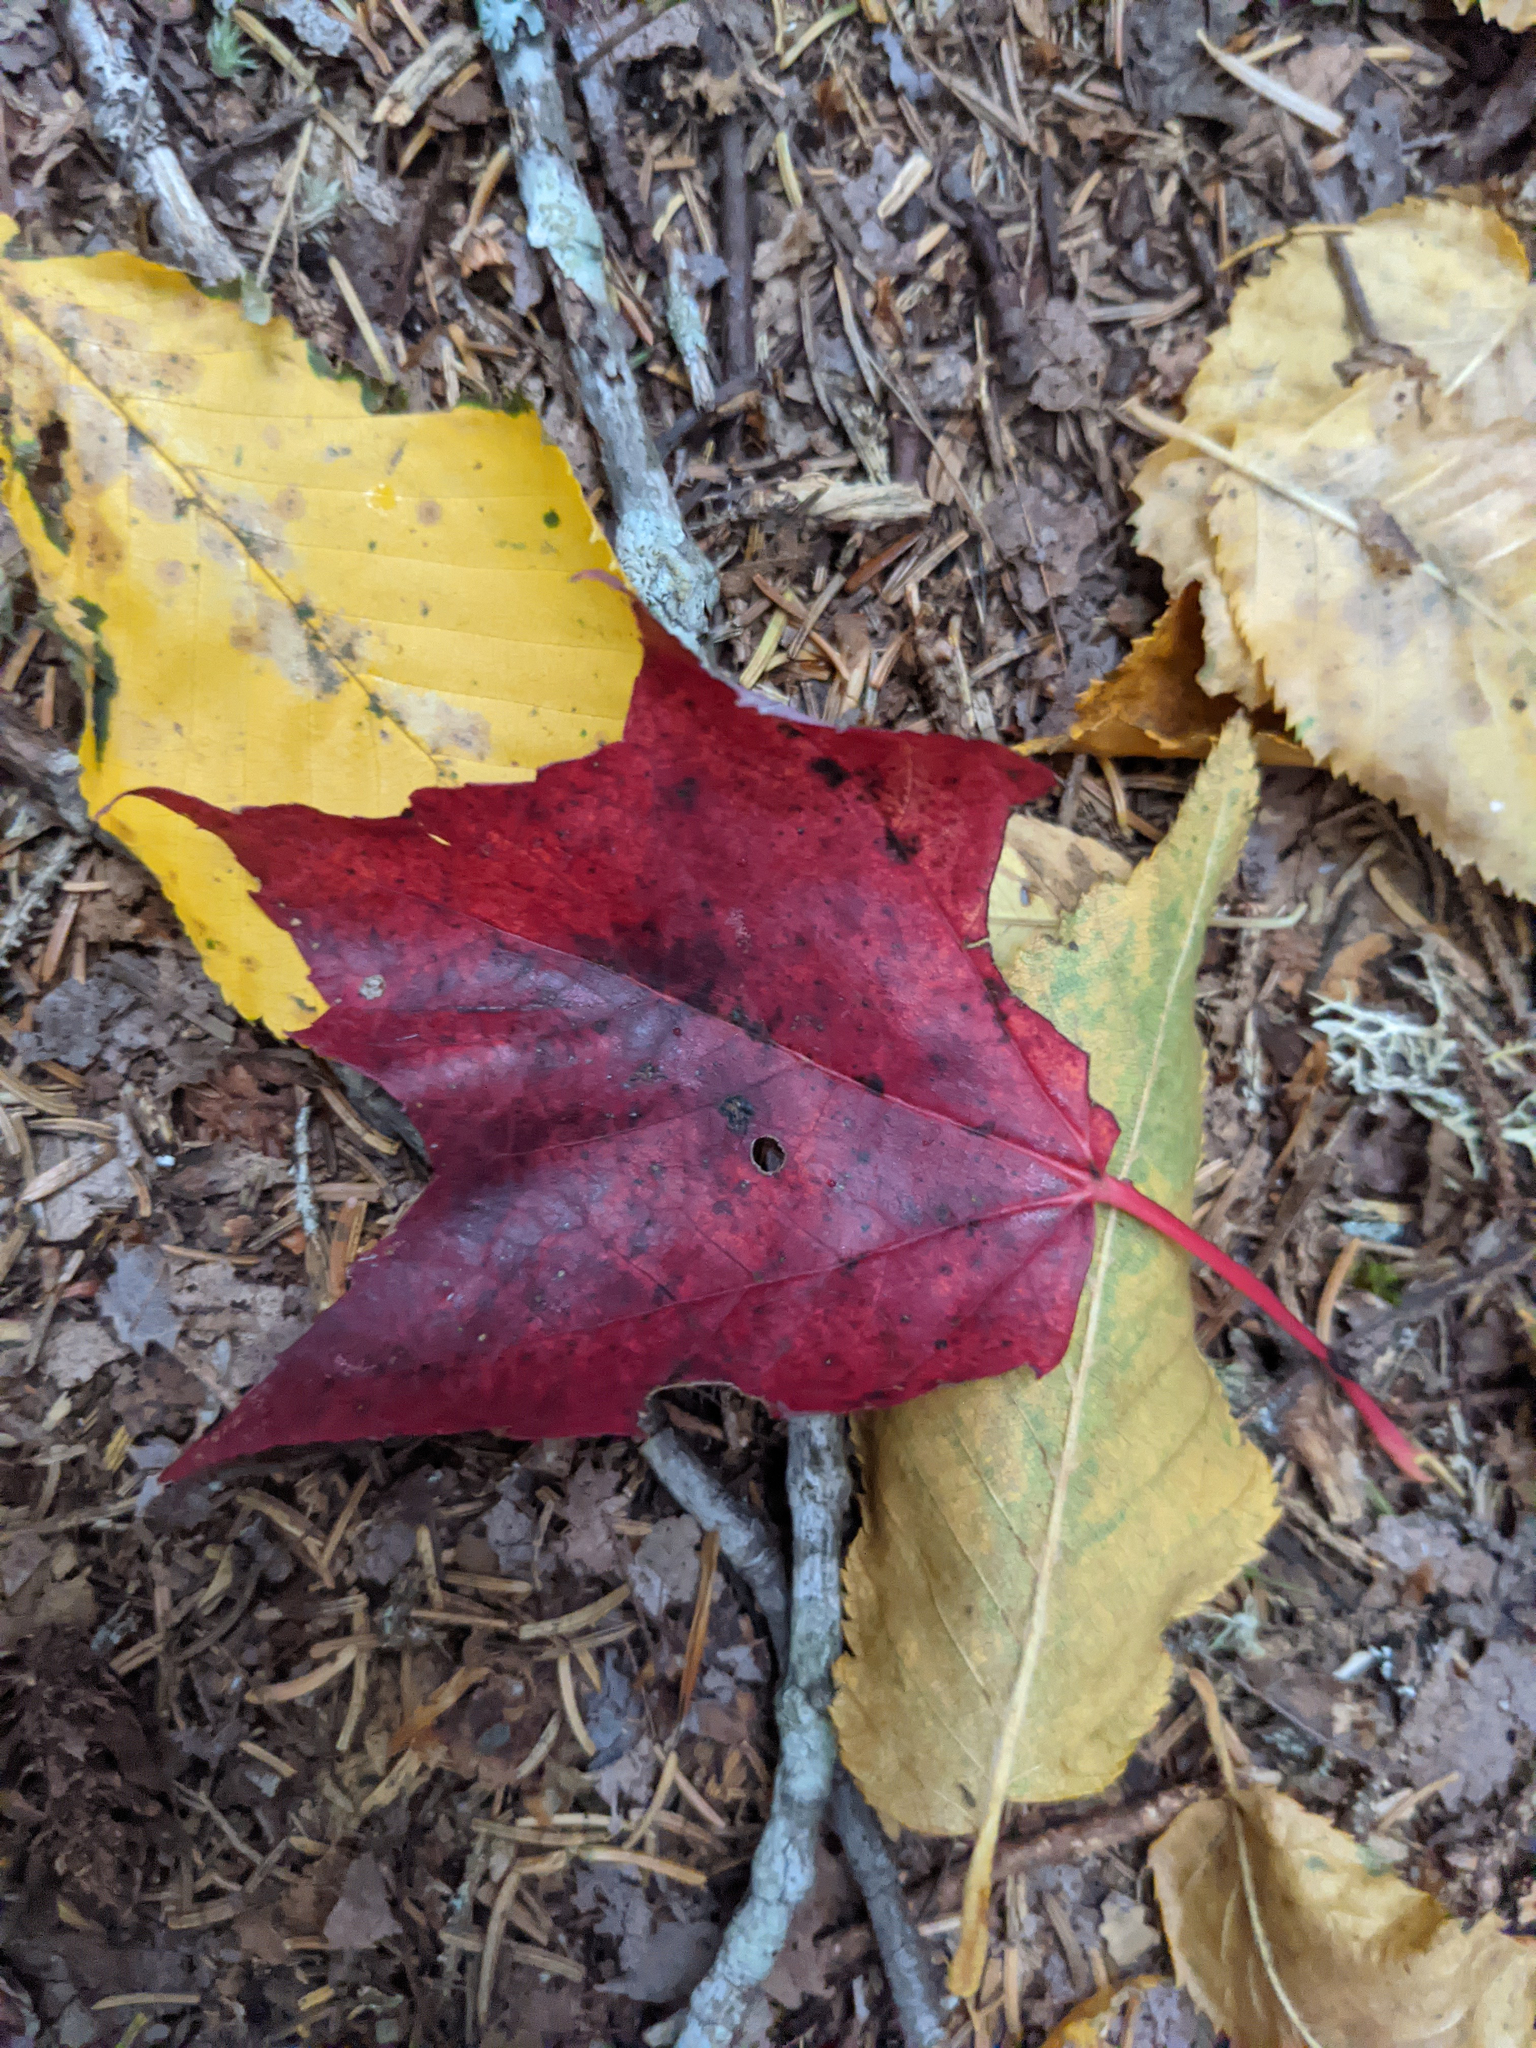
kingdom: Plantae
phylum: Tracheophyta
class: Magnoliopsida
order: Sapindales
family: Sapindaceae
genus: Acer
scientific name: Acer rubrum
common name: Red maple
